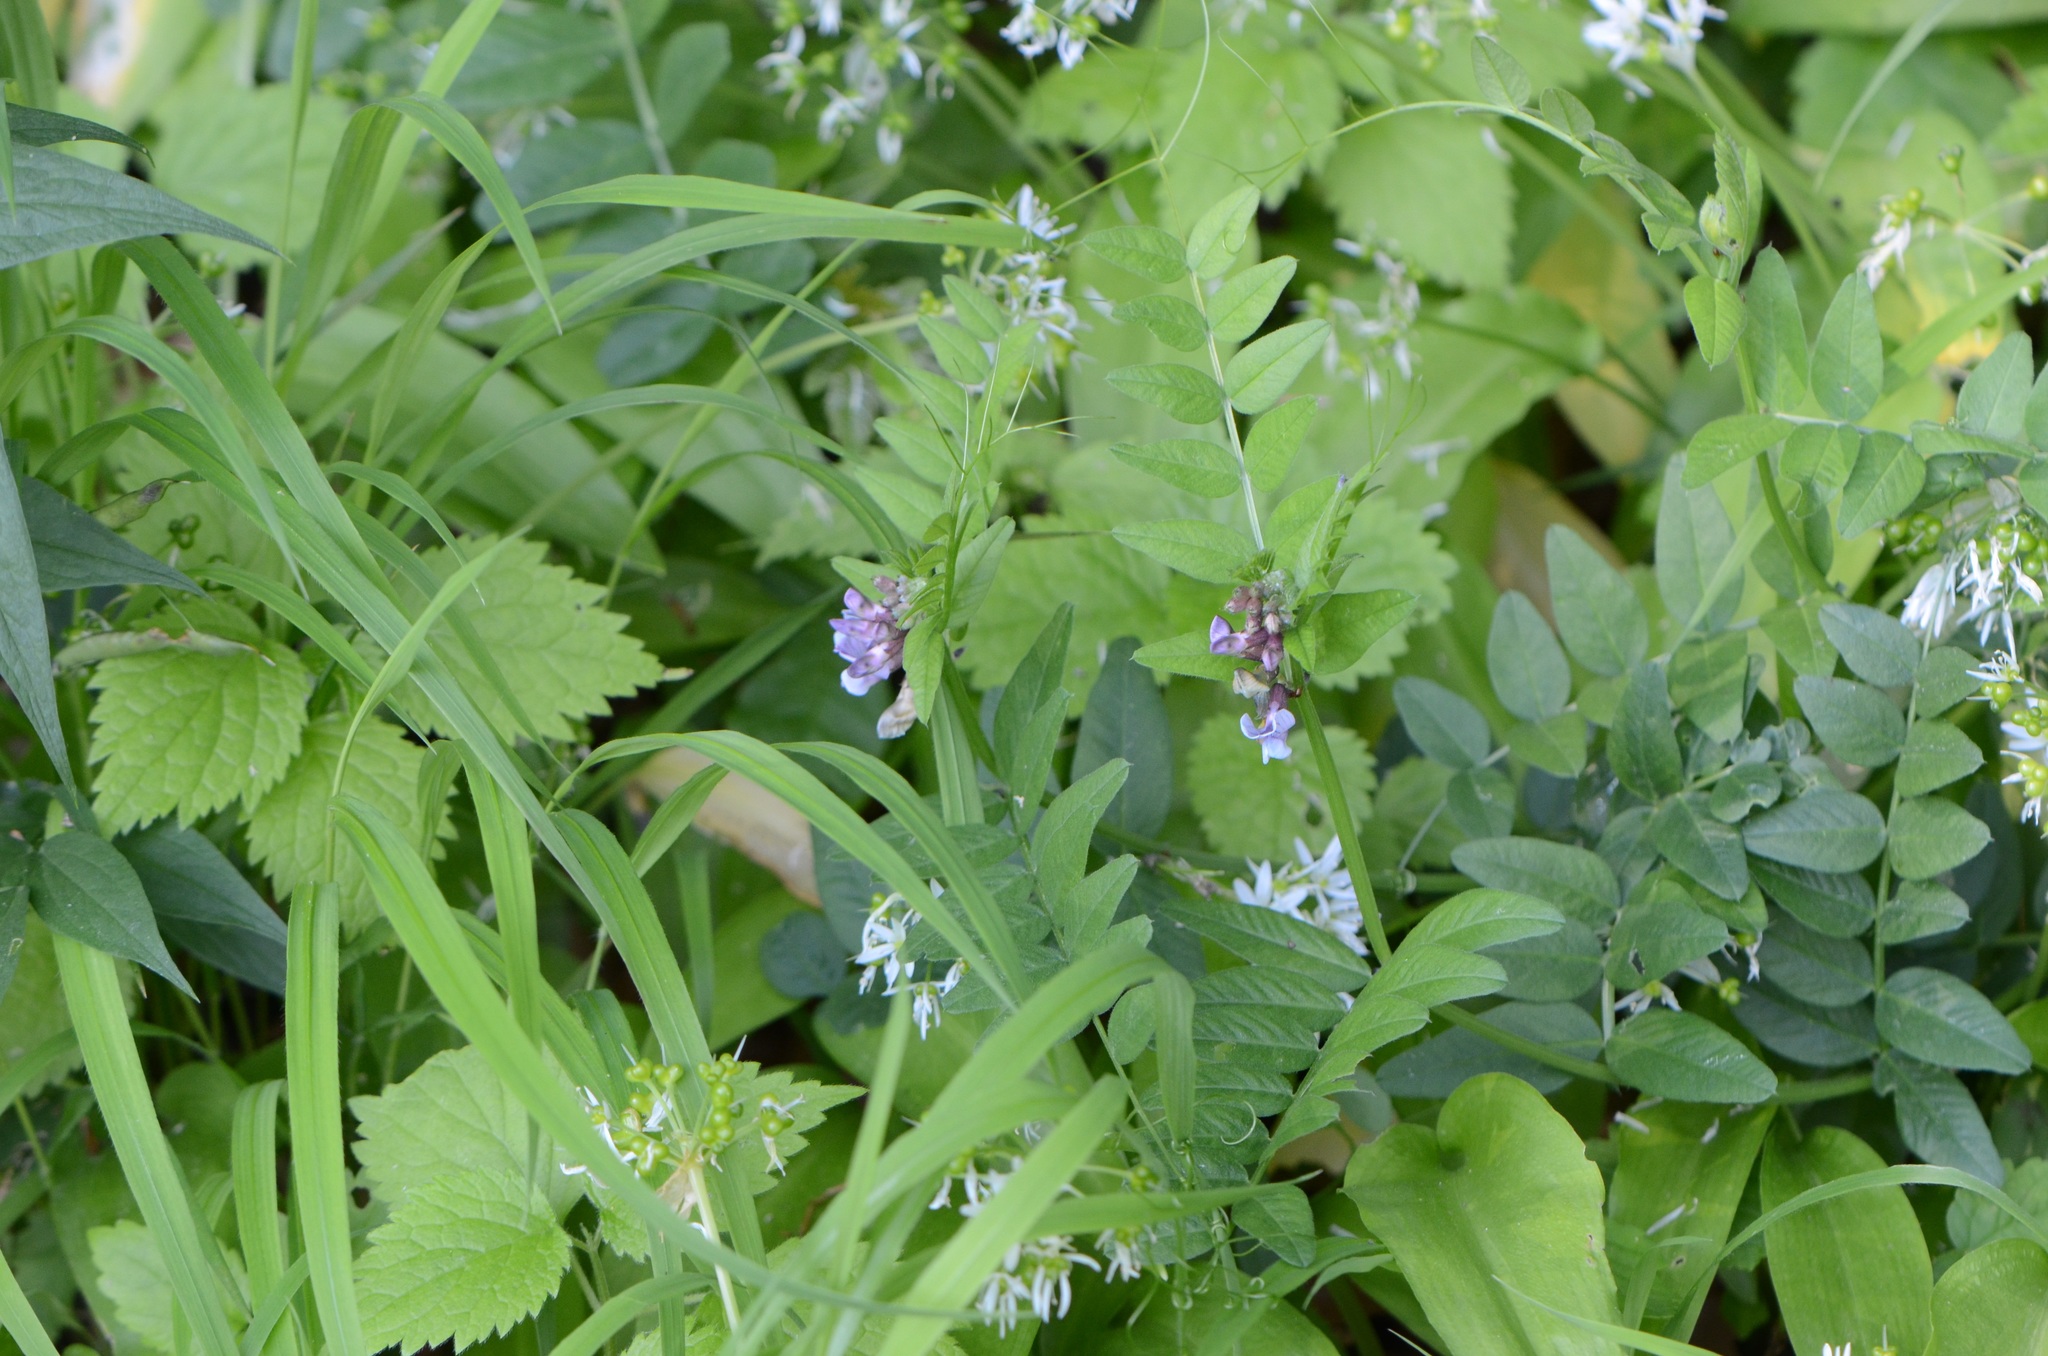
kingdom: Plantae
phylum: Tracheophyta
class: Magnoliopsida
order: Fabales
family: Fabaceae
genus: Vicia
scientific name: Vicia sepium
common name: Bush vetch
